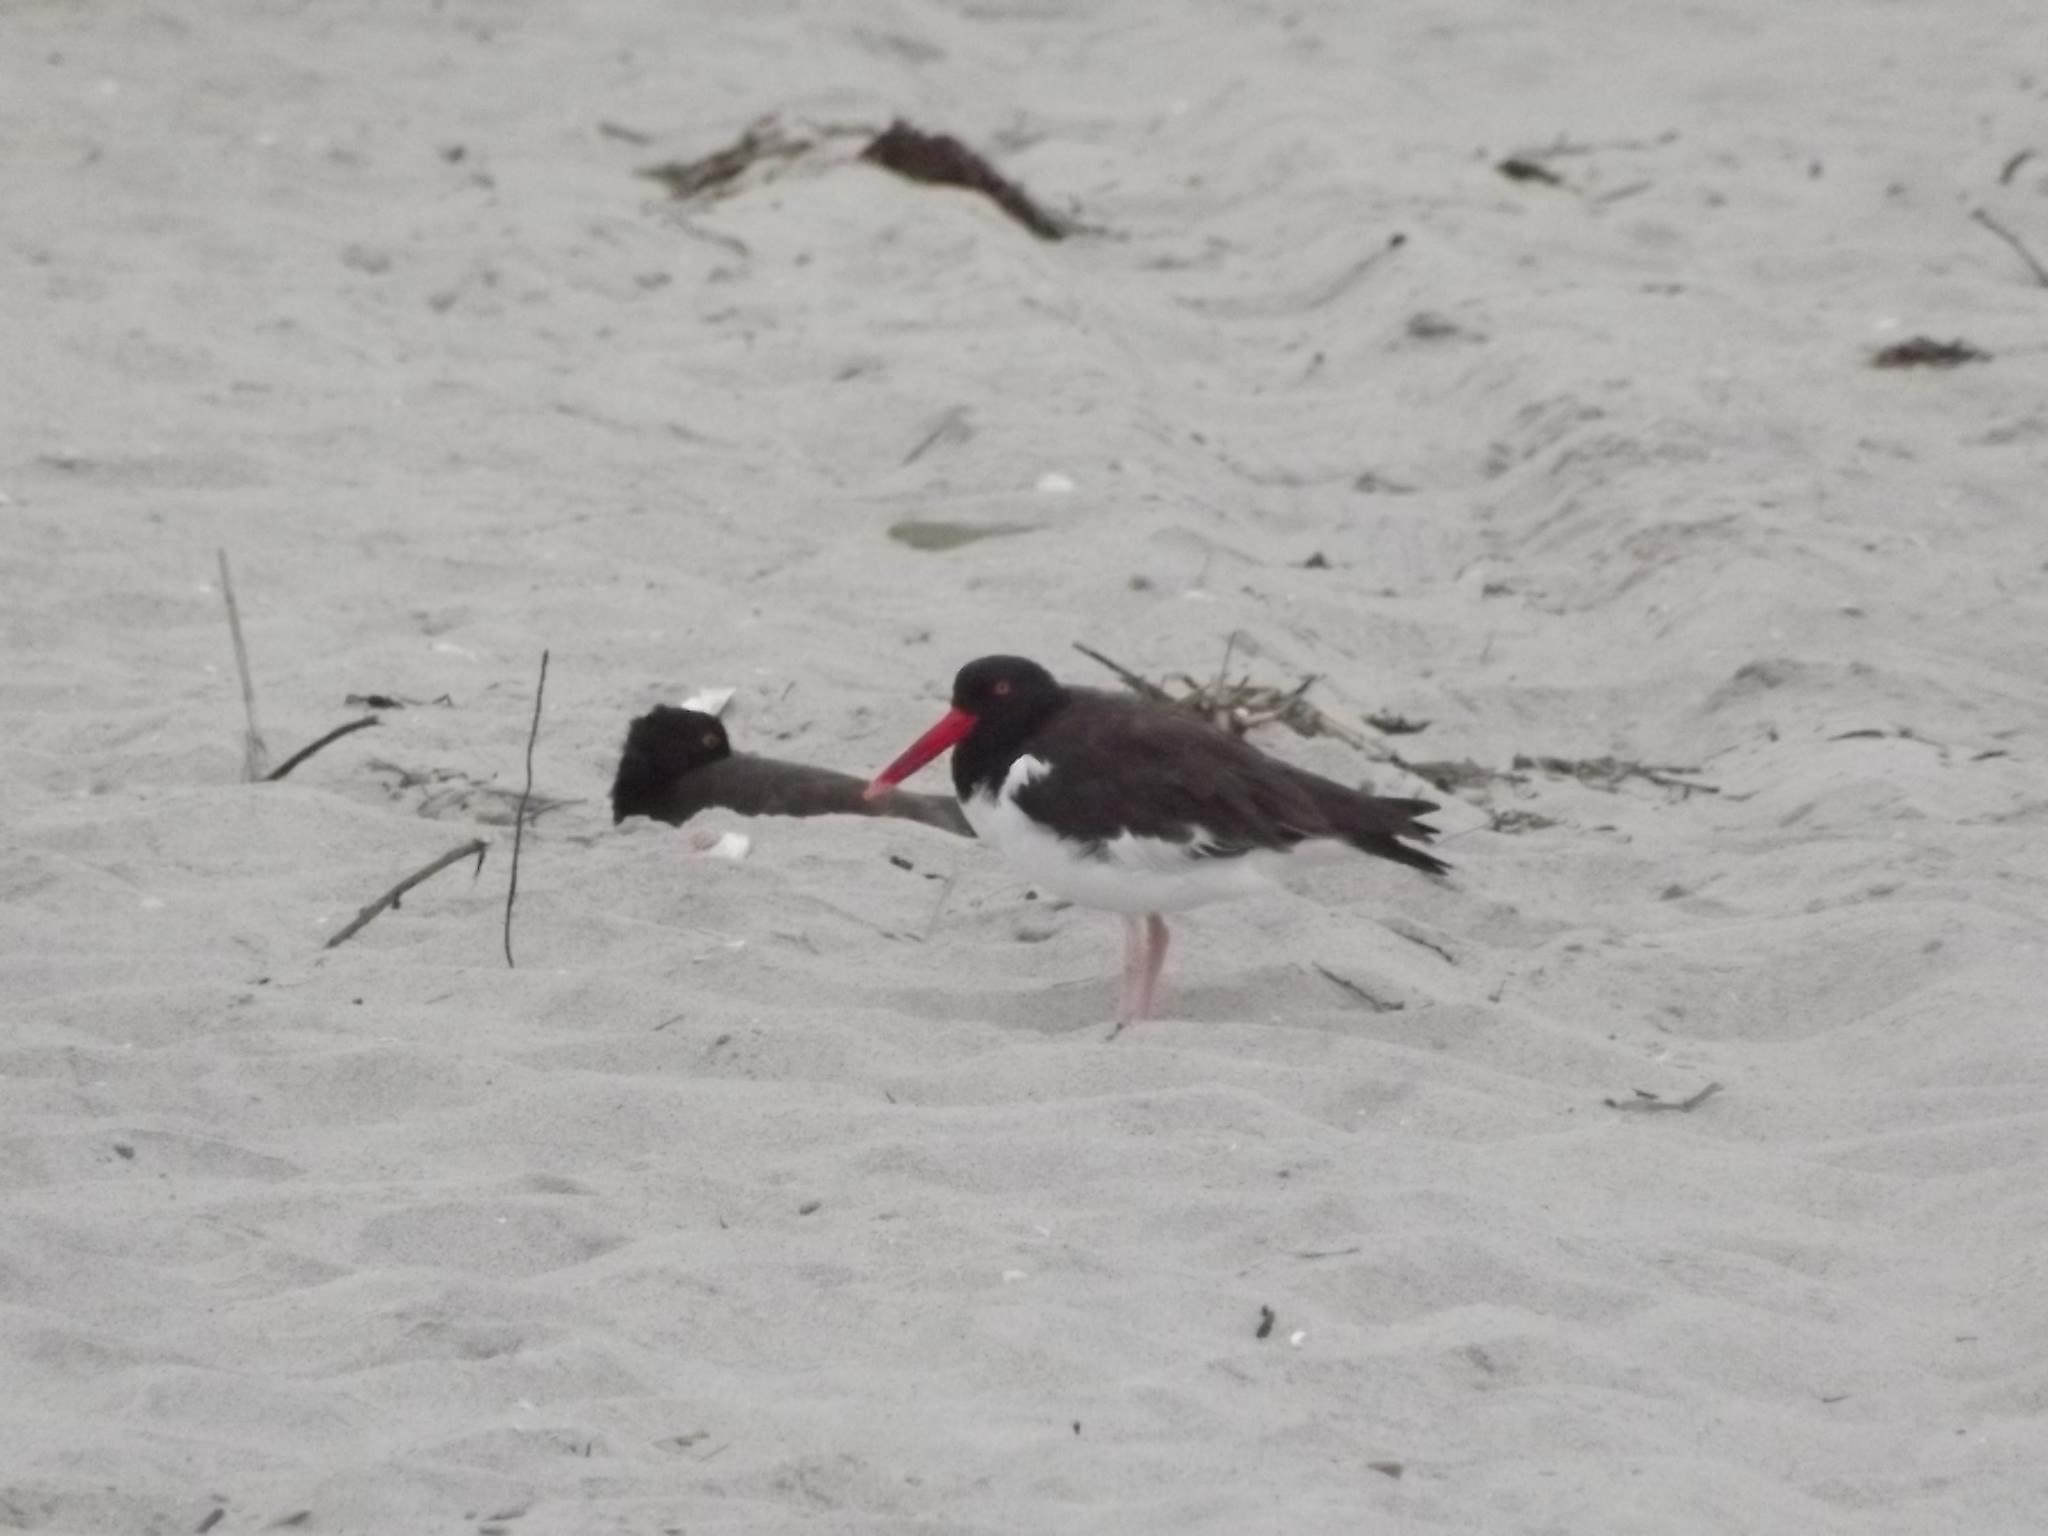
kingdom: Animalia
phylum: Chordata
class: Aves
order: Charadriiformes
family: Haematopodidae
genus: Haematopus
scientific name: Haematopus palliatus
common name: American oystercatcher
